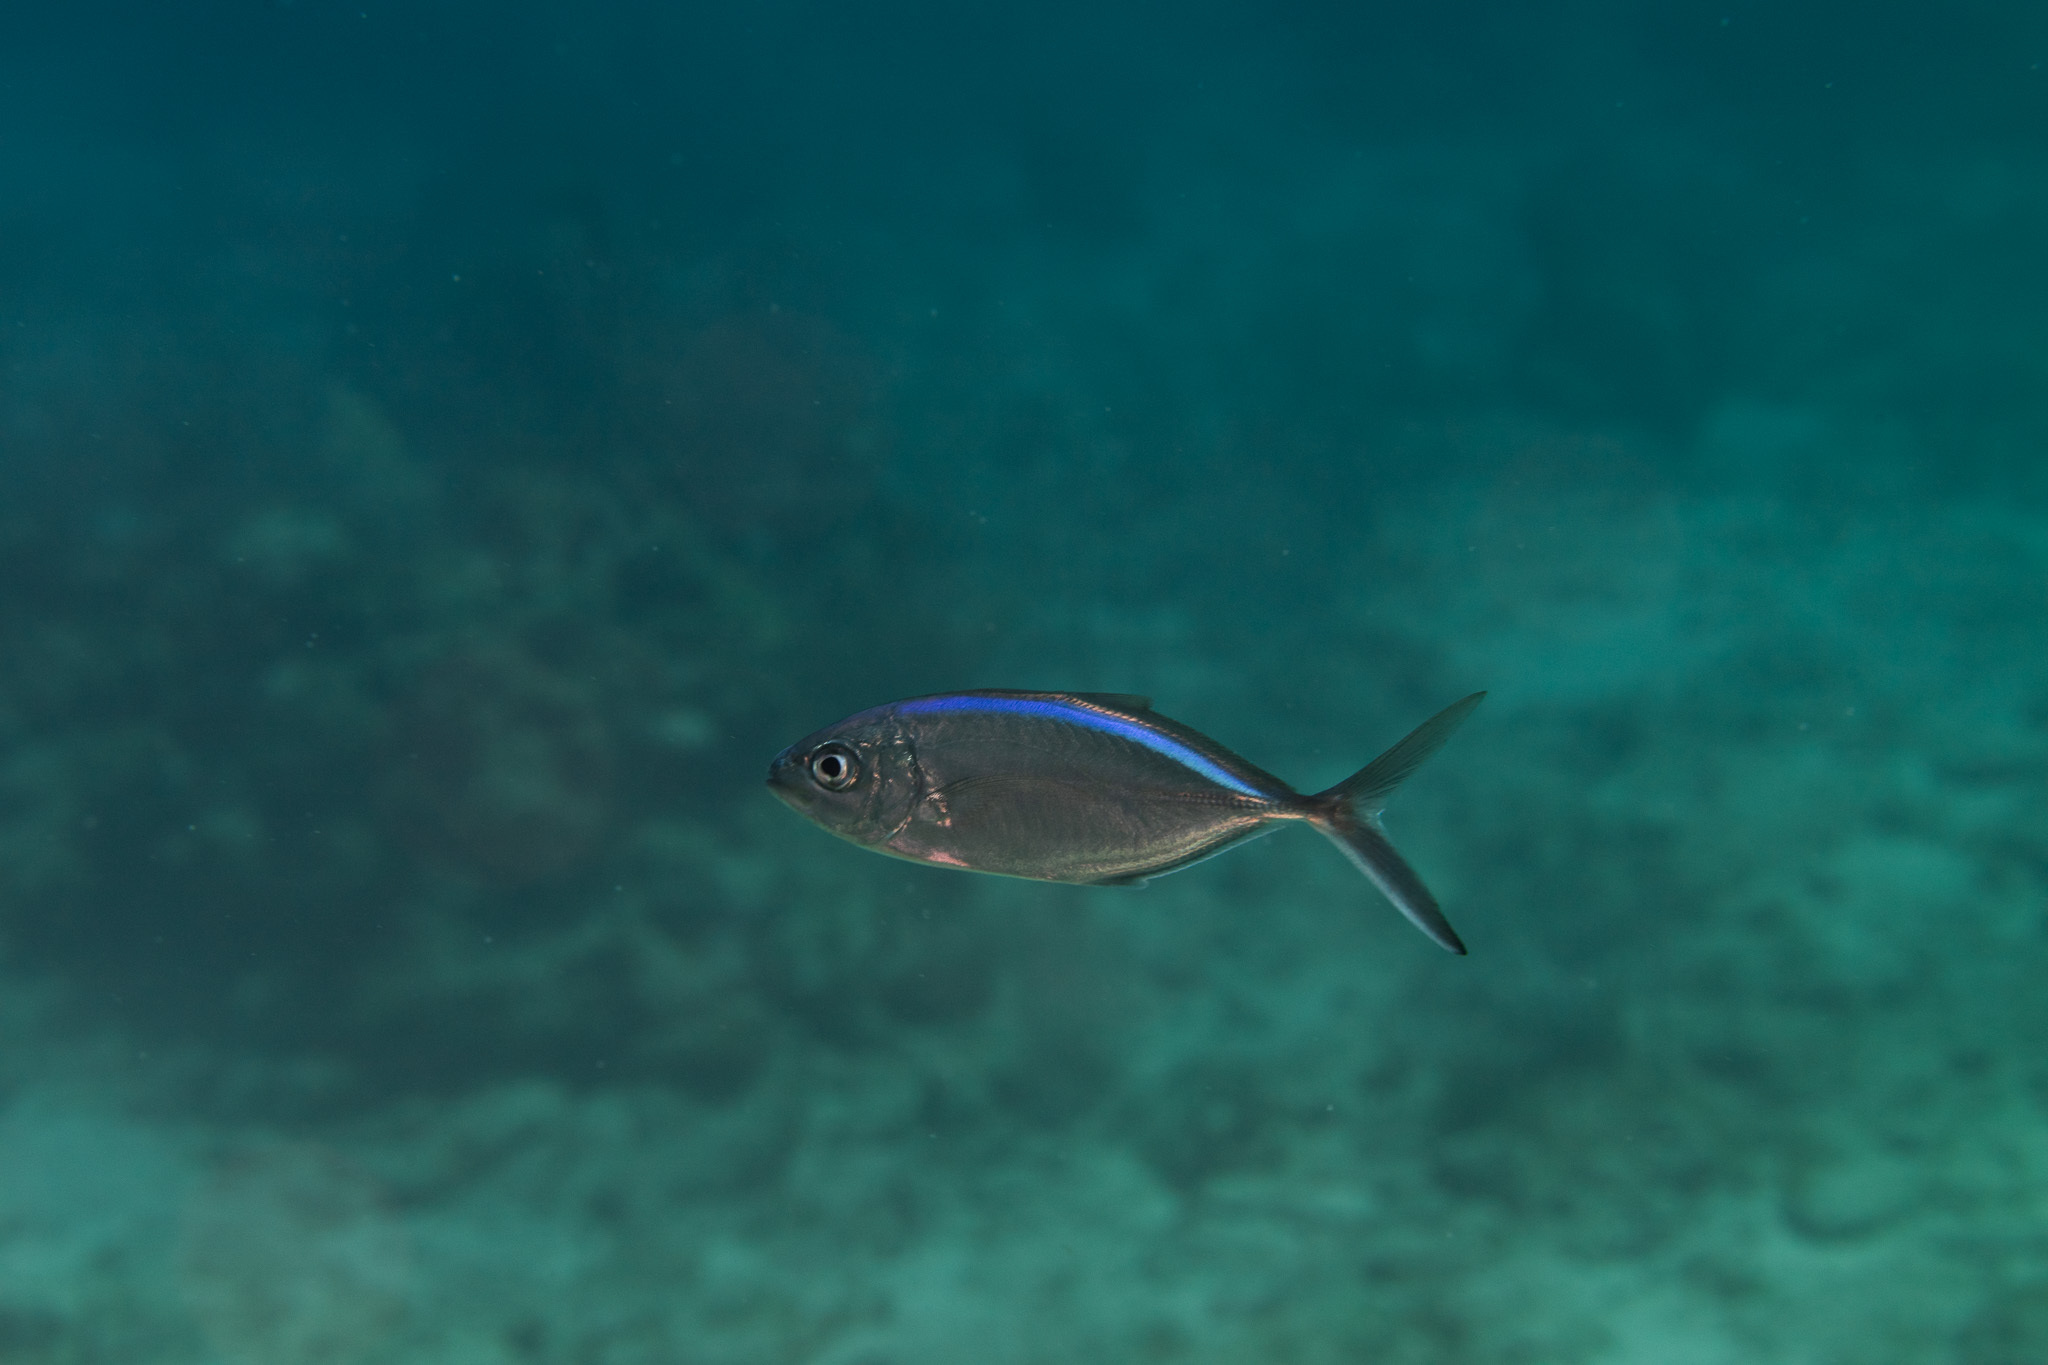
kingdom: Animalia
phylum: Chordata
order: Perciformes
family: Carangidae
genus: Caranx
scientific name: Caranx ruber
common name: Bar jack
